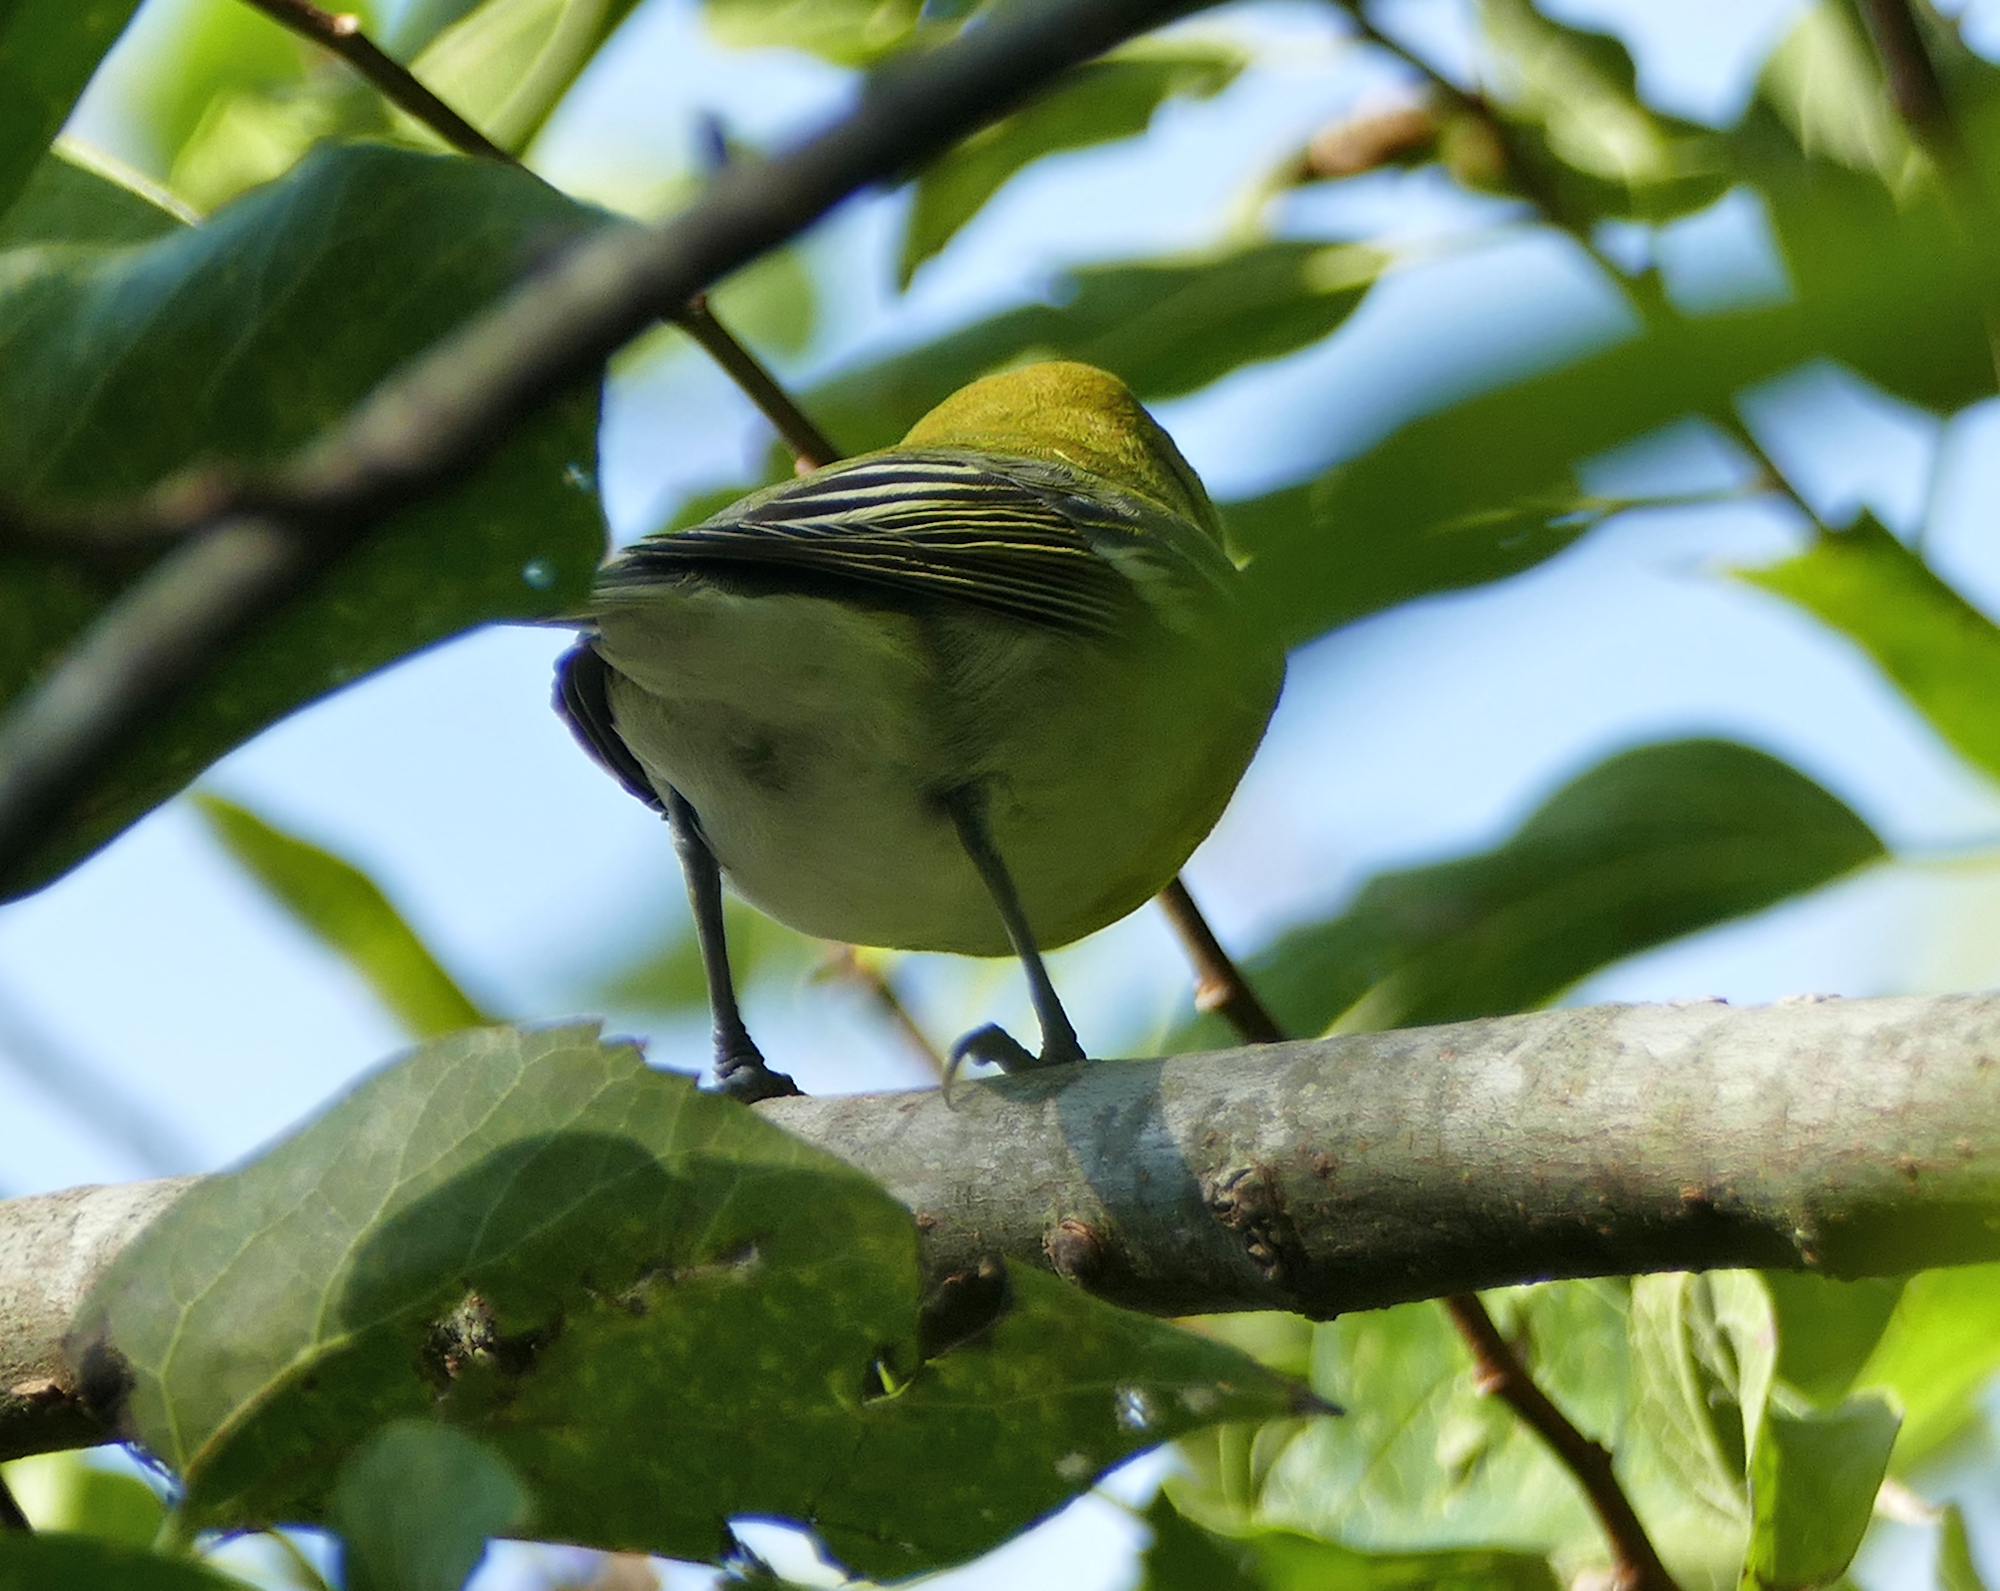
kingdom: Animalia
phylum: Chordata
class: Aves
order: Passeriformes
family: Vireonidae
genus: Vireo
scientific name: Vireo flavifrons
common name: Yellow-throated vireo
